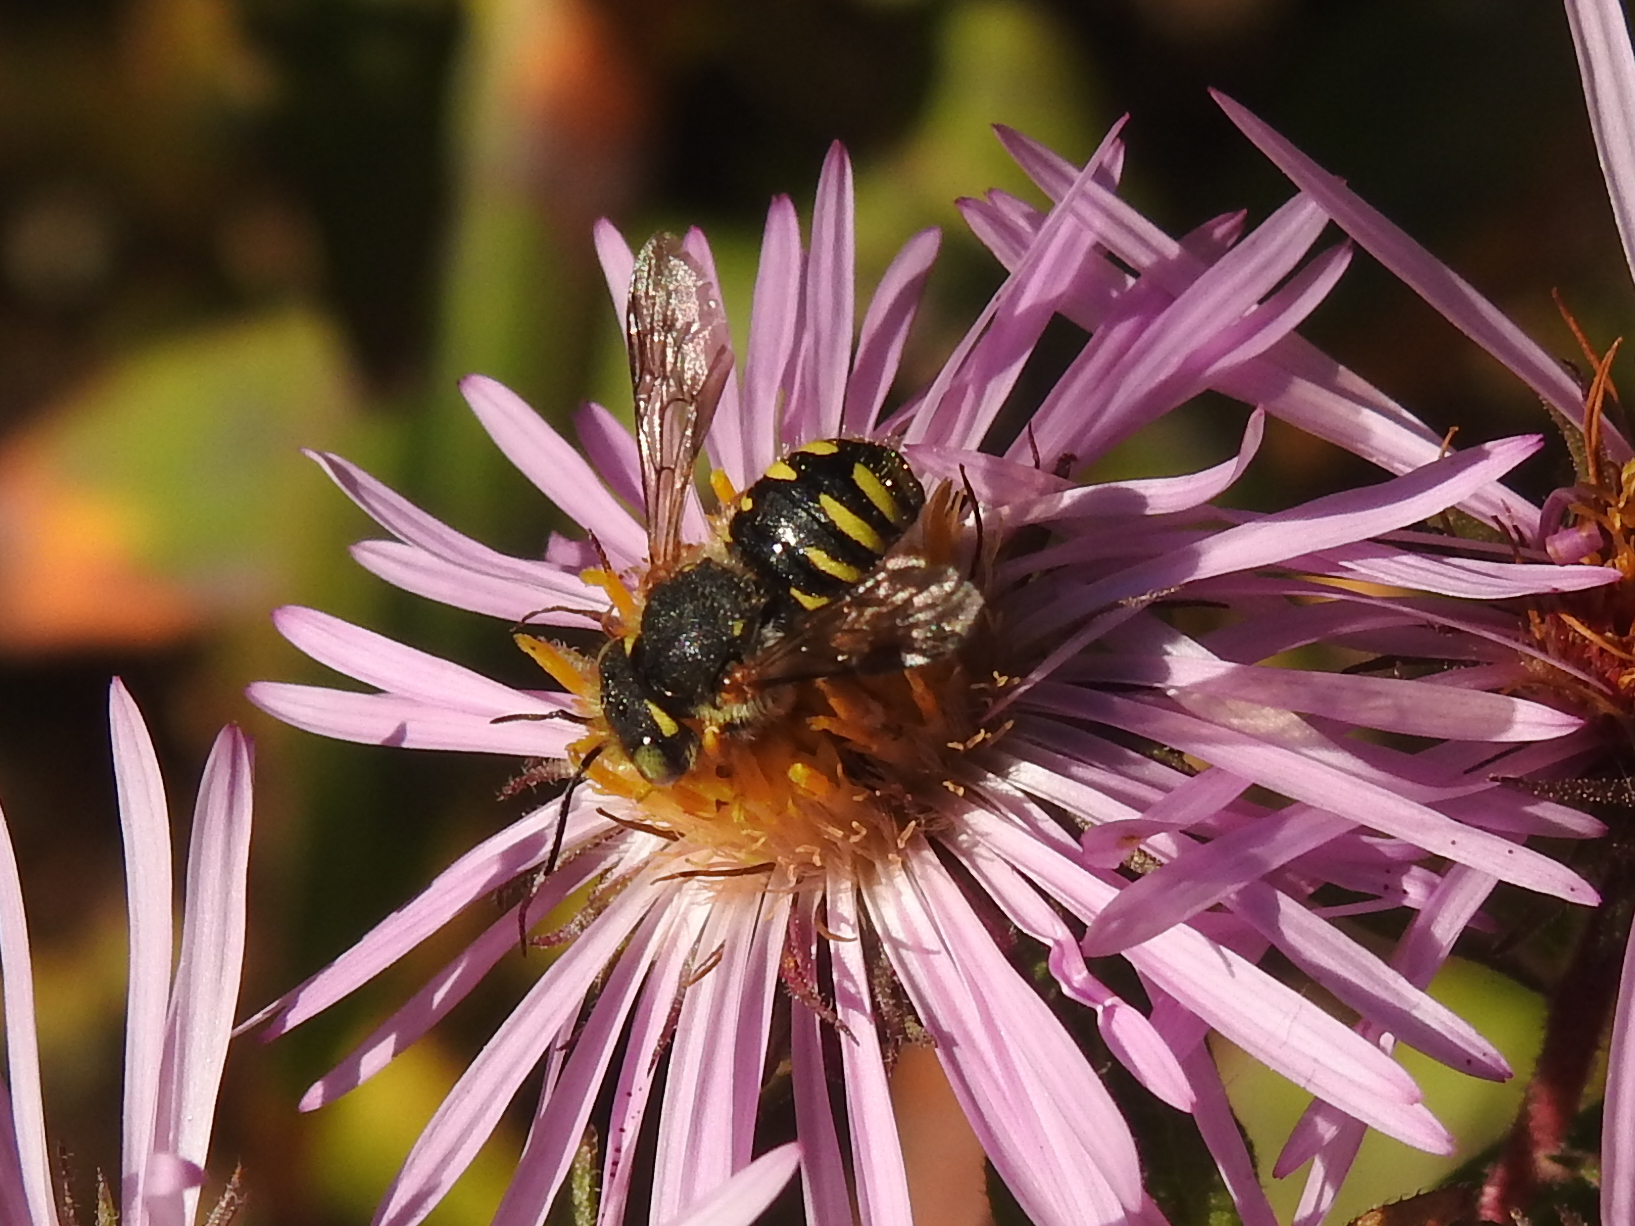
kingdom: Animalia
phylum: Arthropoda
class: Insecta
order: Hymenoptera
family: Megachilidae
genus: Anthidium
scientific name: Anthidium oblongatum
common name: Oblong wool carder bee
